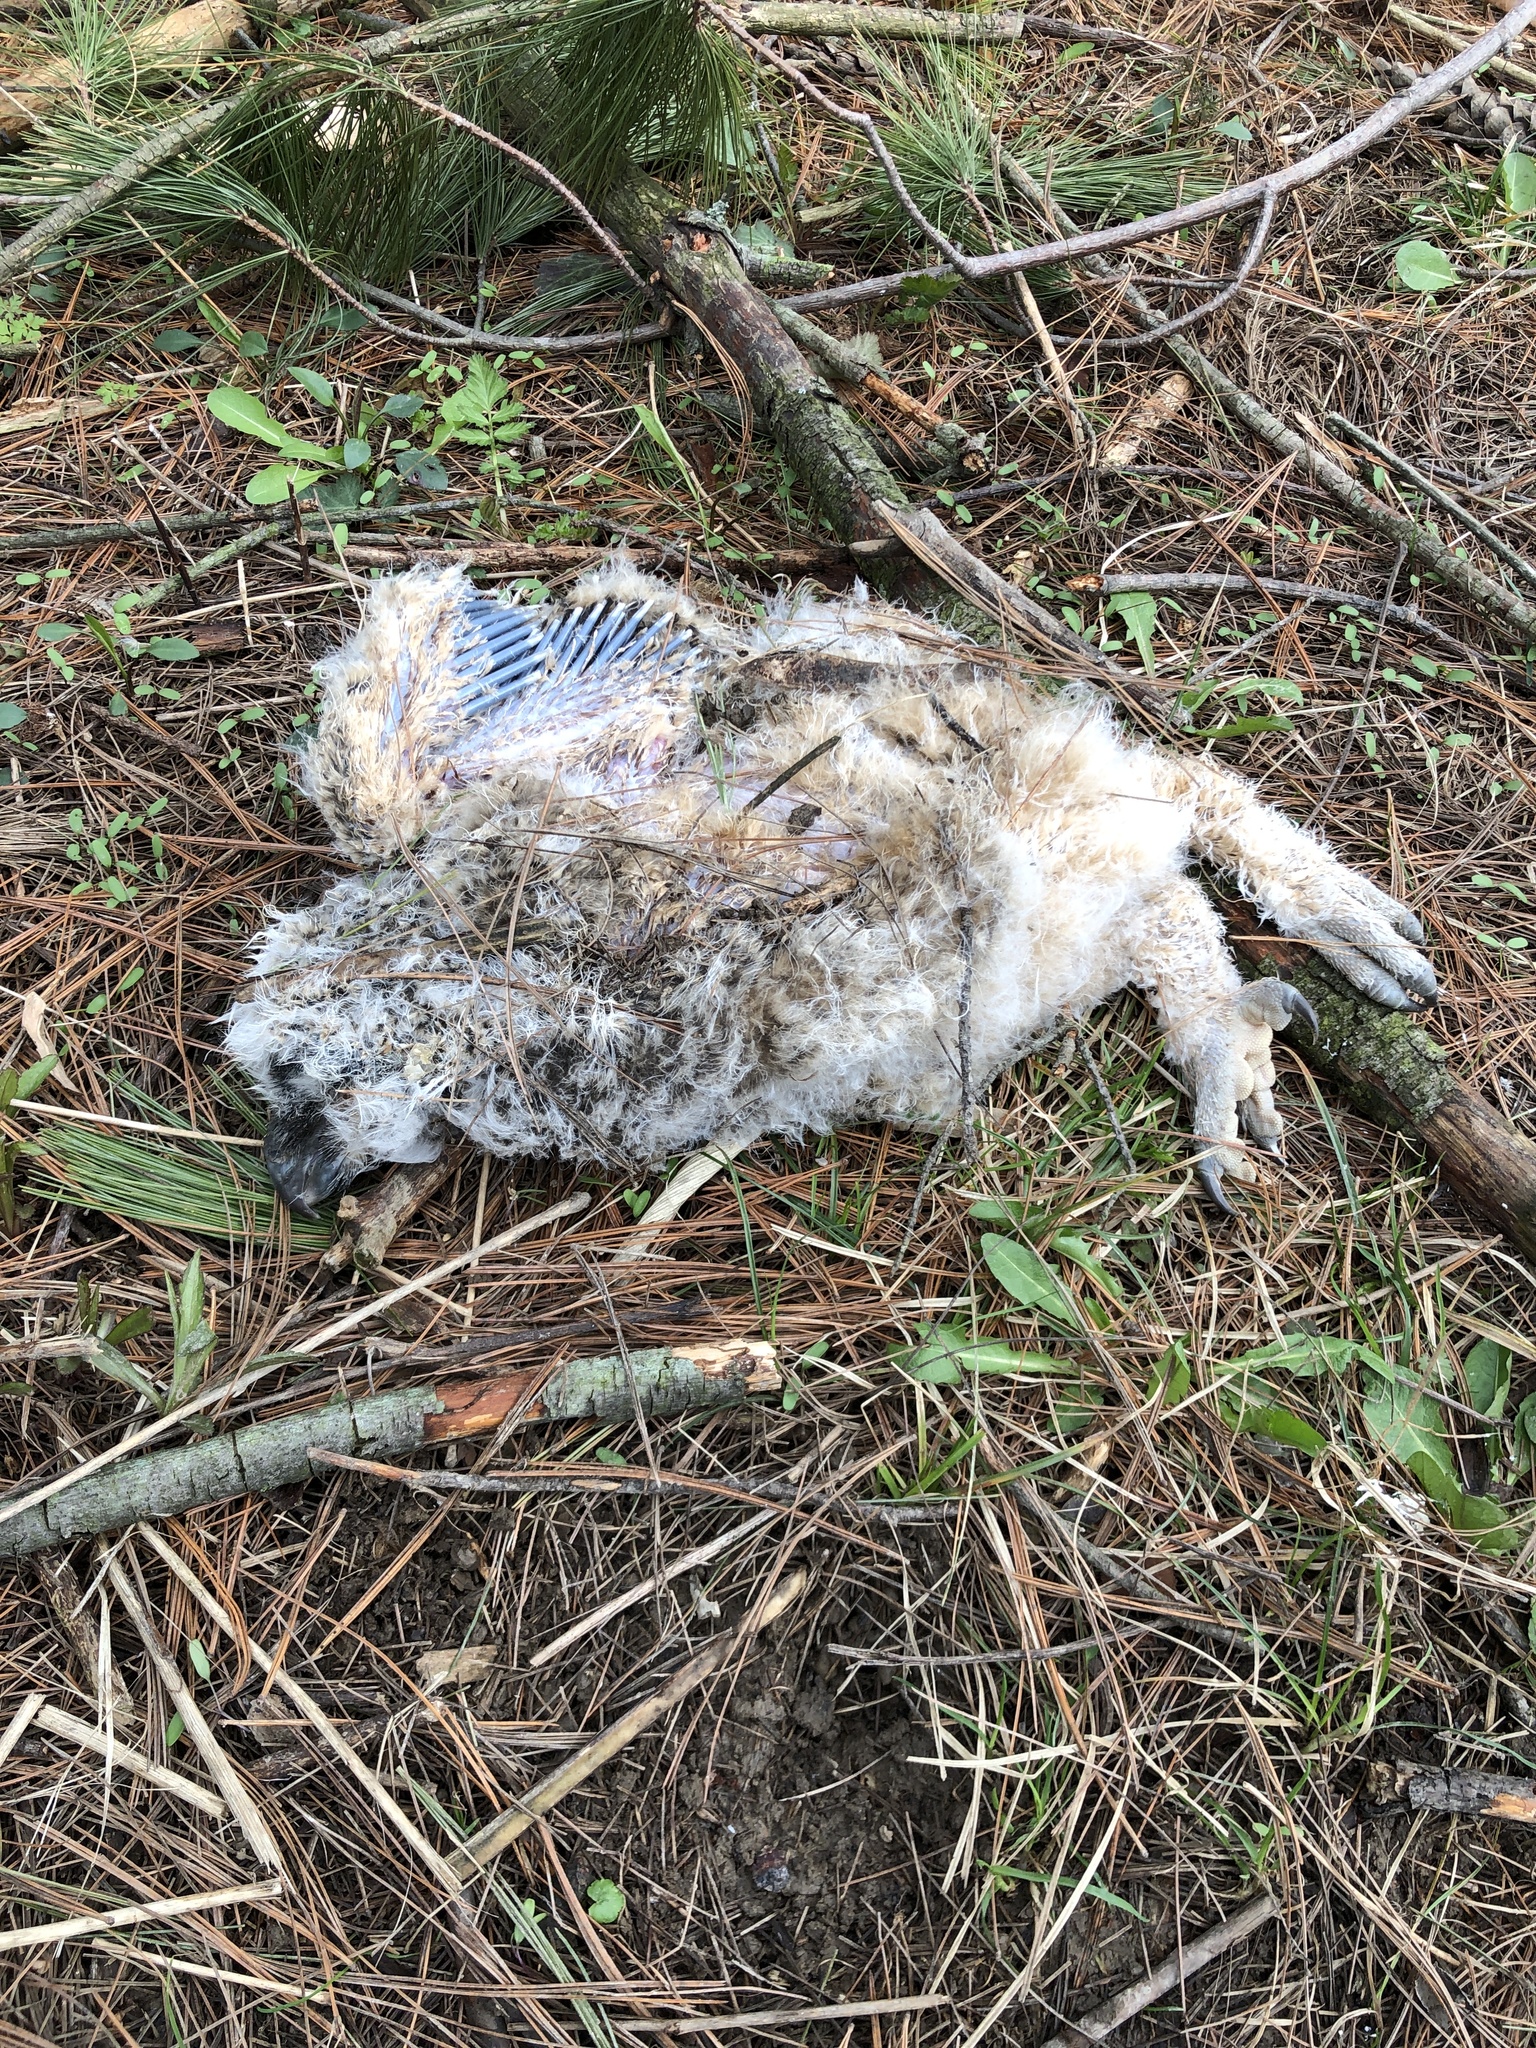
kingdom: Animalia
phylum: Chordata
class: Aves
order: Strigiformes
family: Strigidae
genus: Bubo
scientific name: Bubo virginianus
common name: Great horned owl
